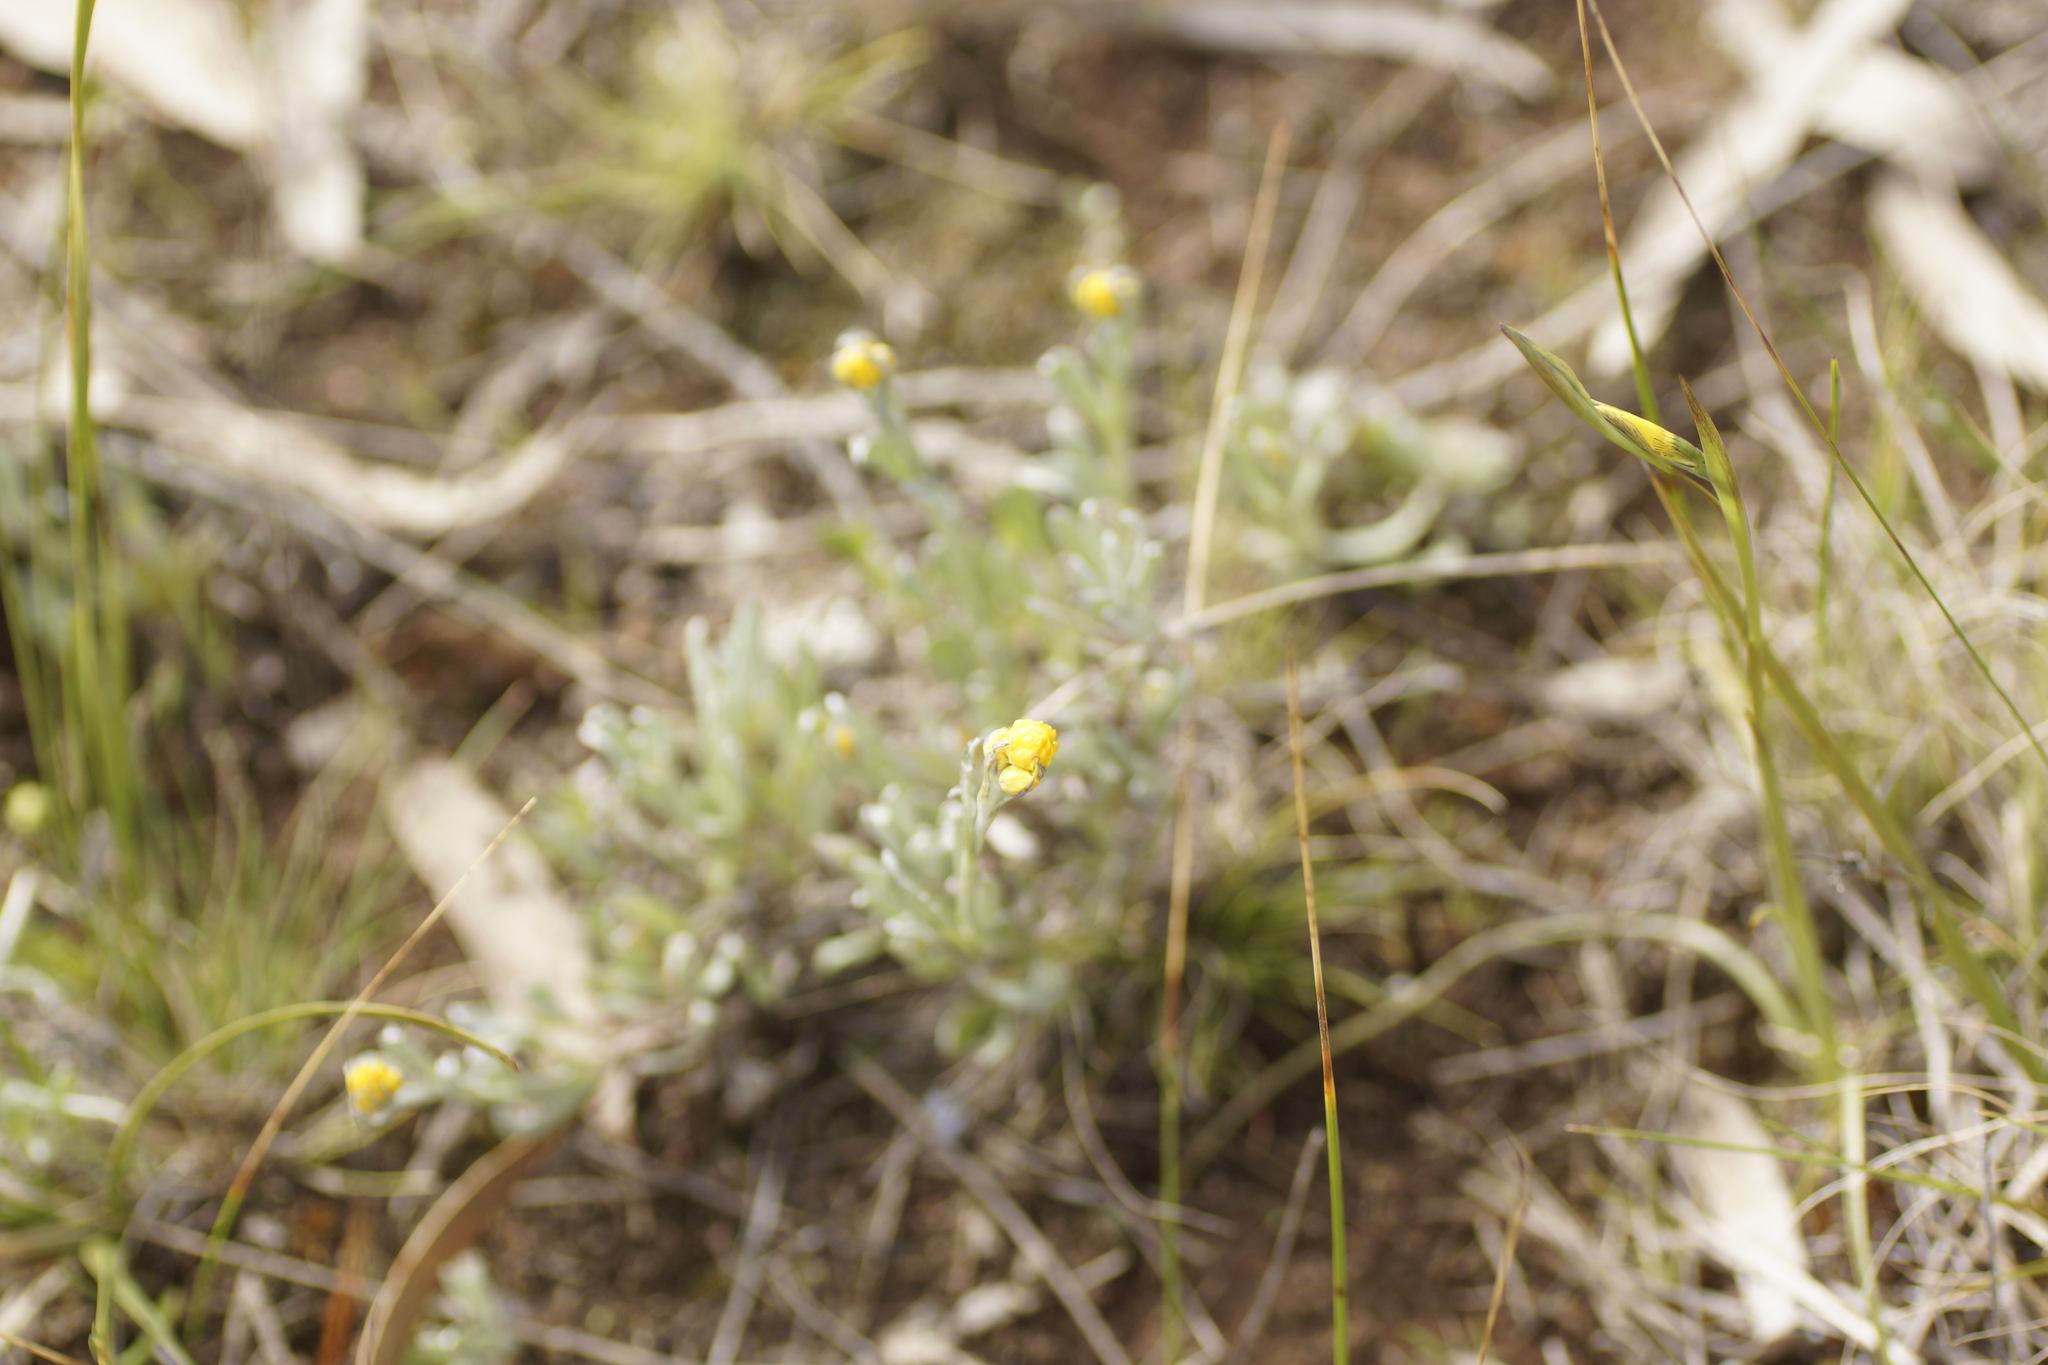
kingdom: Plantae
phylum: Tracheophyta
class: Magnoliopsida
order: Asterales
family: Asteraceae
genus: Chrysocephalum
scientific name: Chrysocephalum apiculatum
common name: Common everlasting
